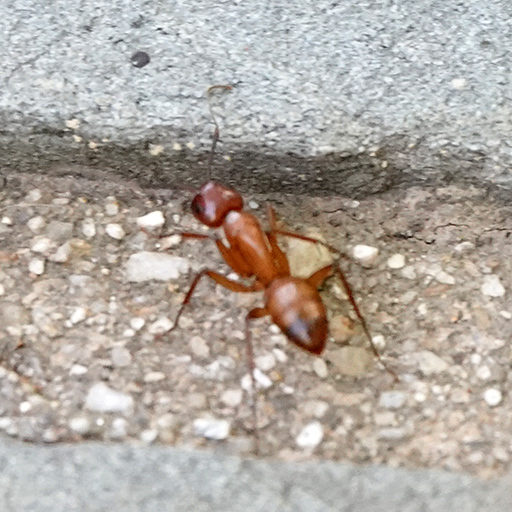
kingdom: Animalia
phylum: Arthropoda
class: Insecta
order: Hymenoptera
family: Formicidae
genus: Camponotus
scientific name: Camponotus castaneus
